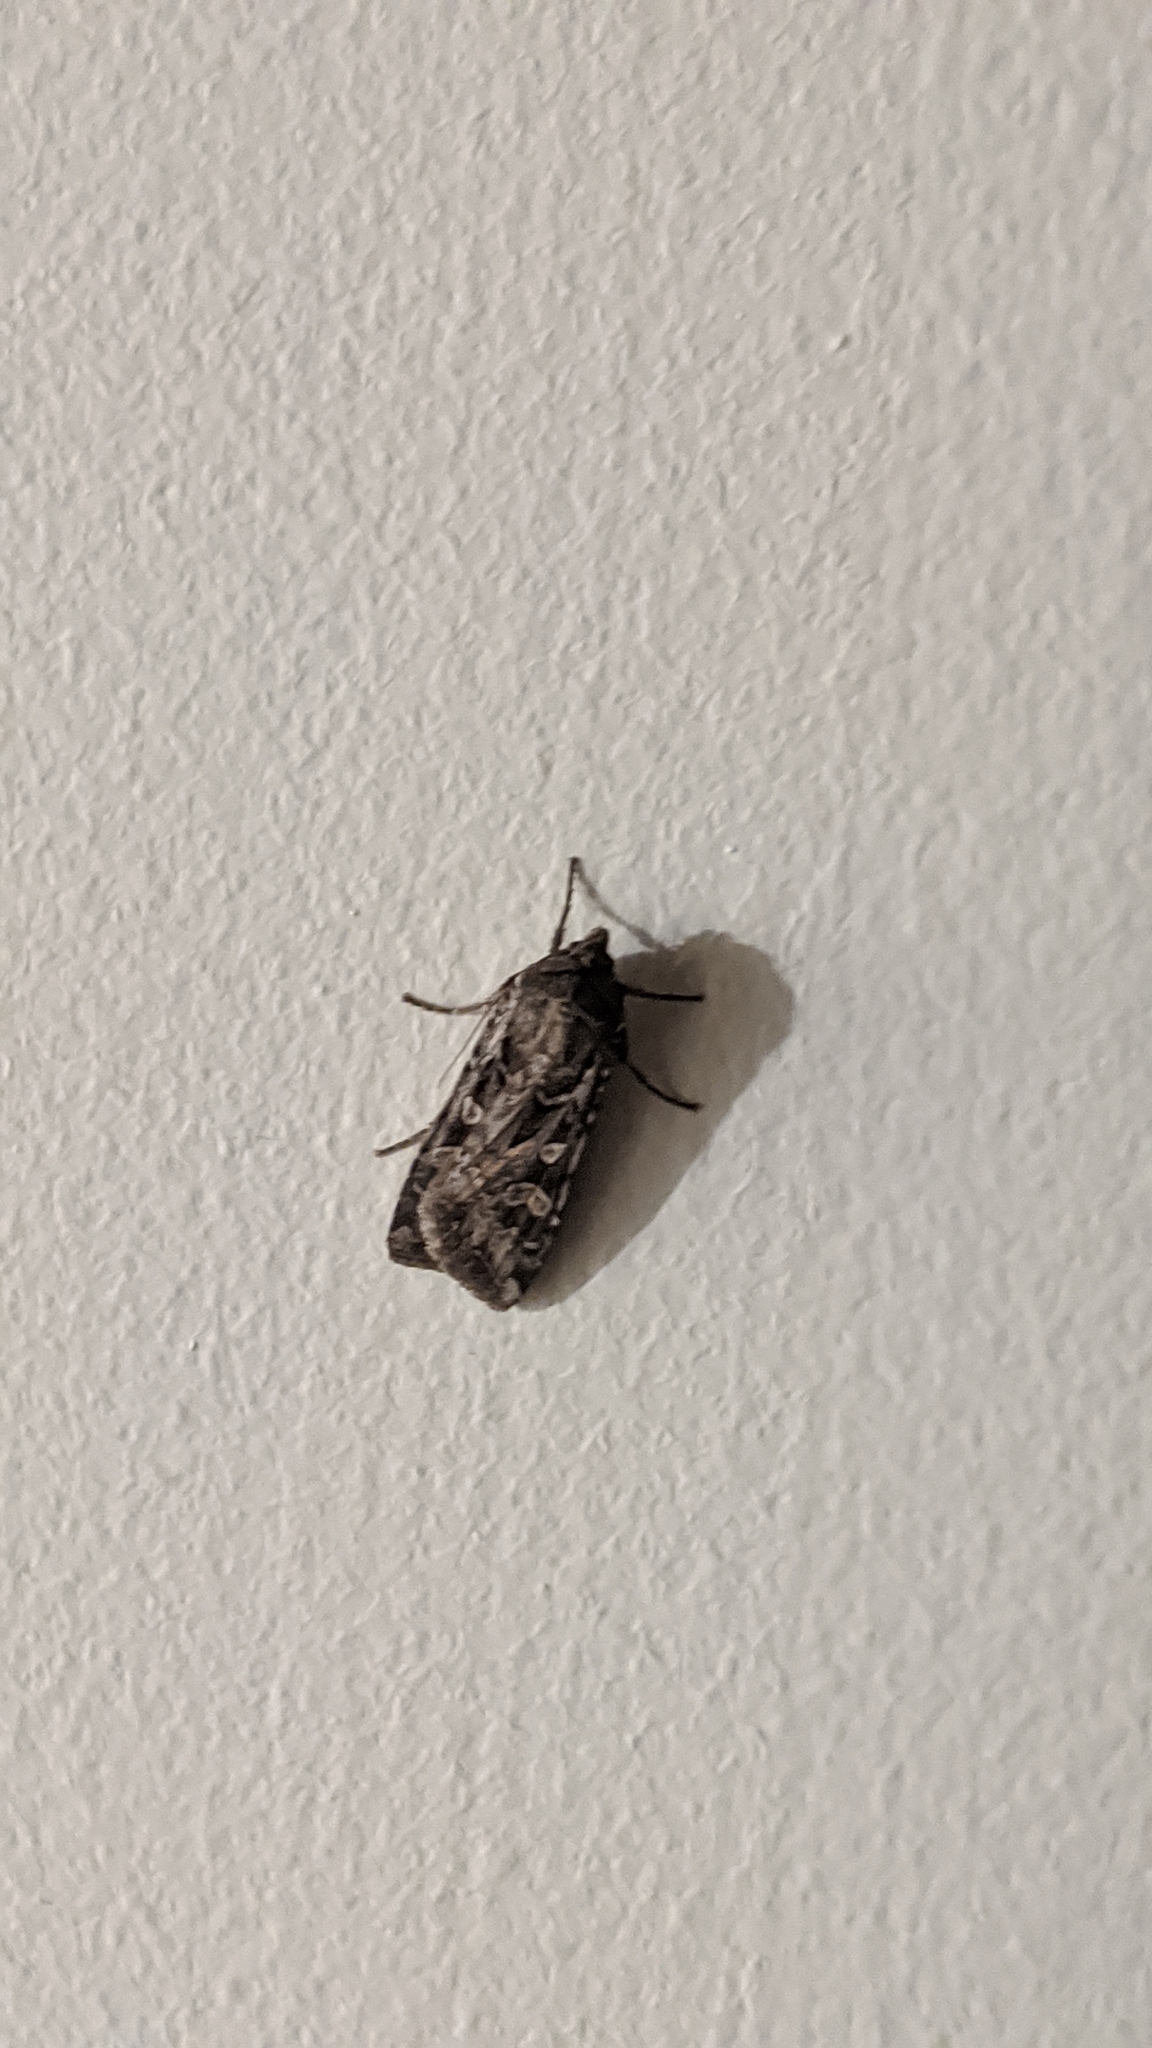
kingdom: Animalia
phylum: Arthropoda
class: Insecta
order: Lepidoptera
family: Noctuidae
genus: Euxoa
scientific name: Euxoa auxiliaris
